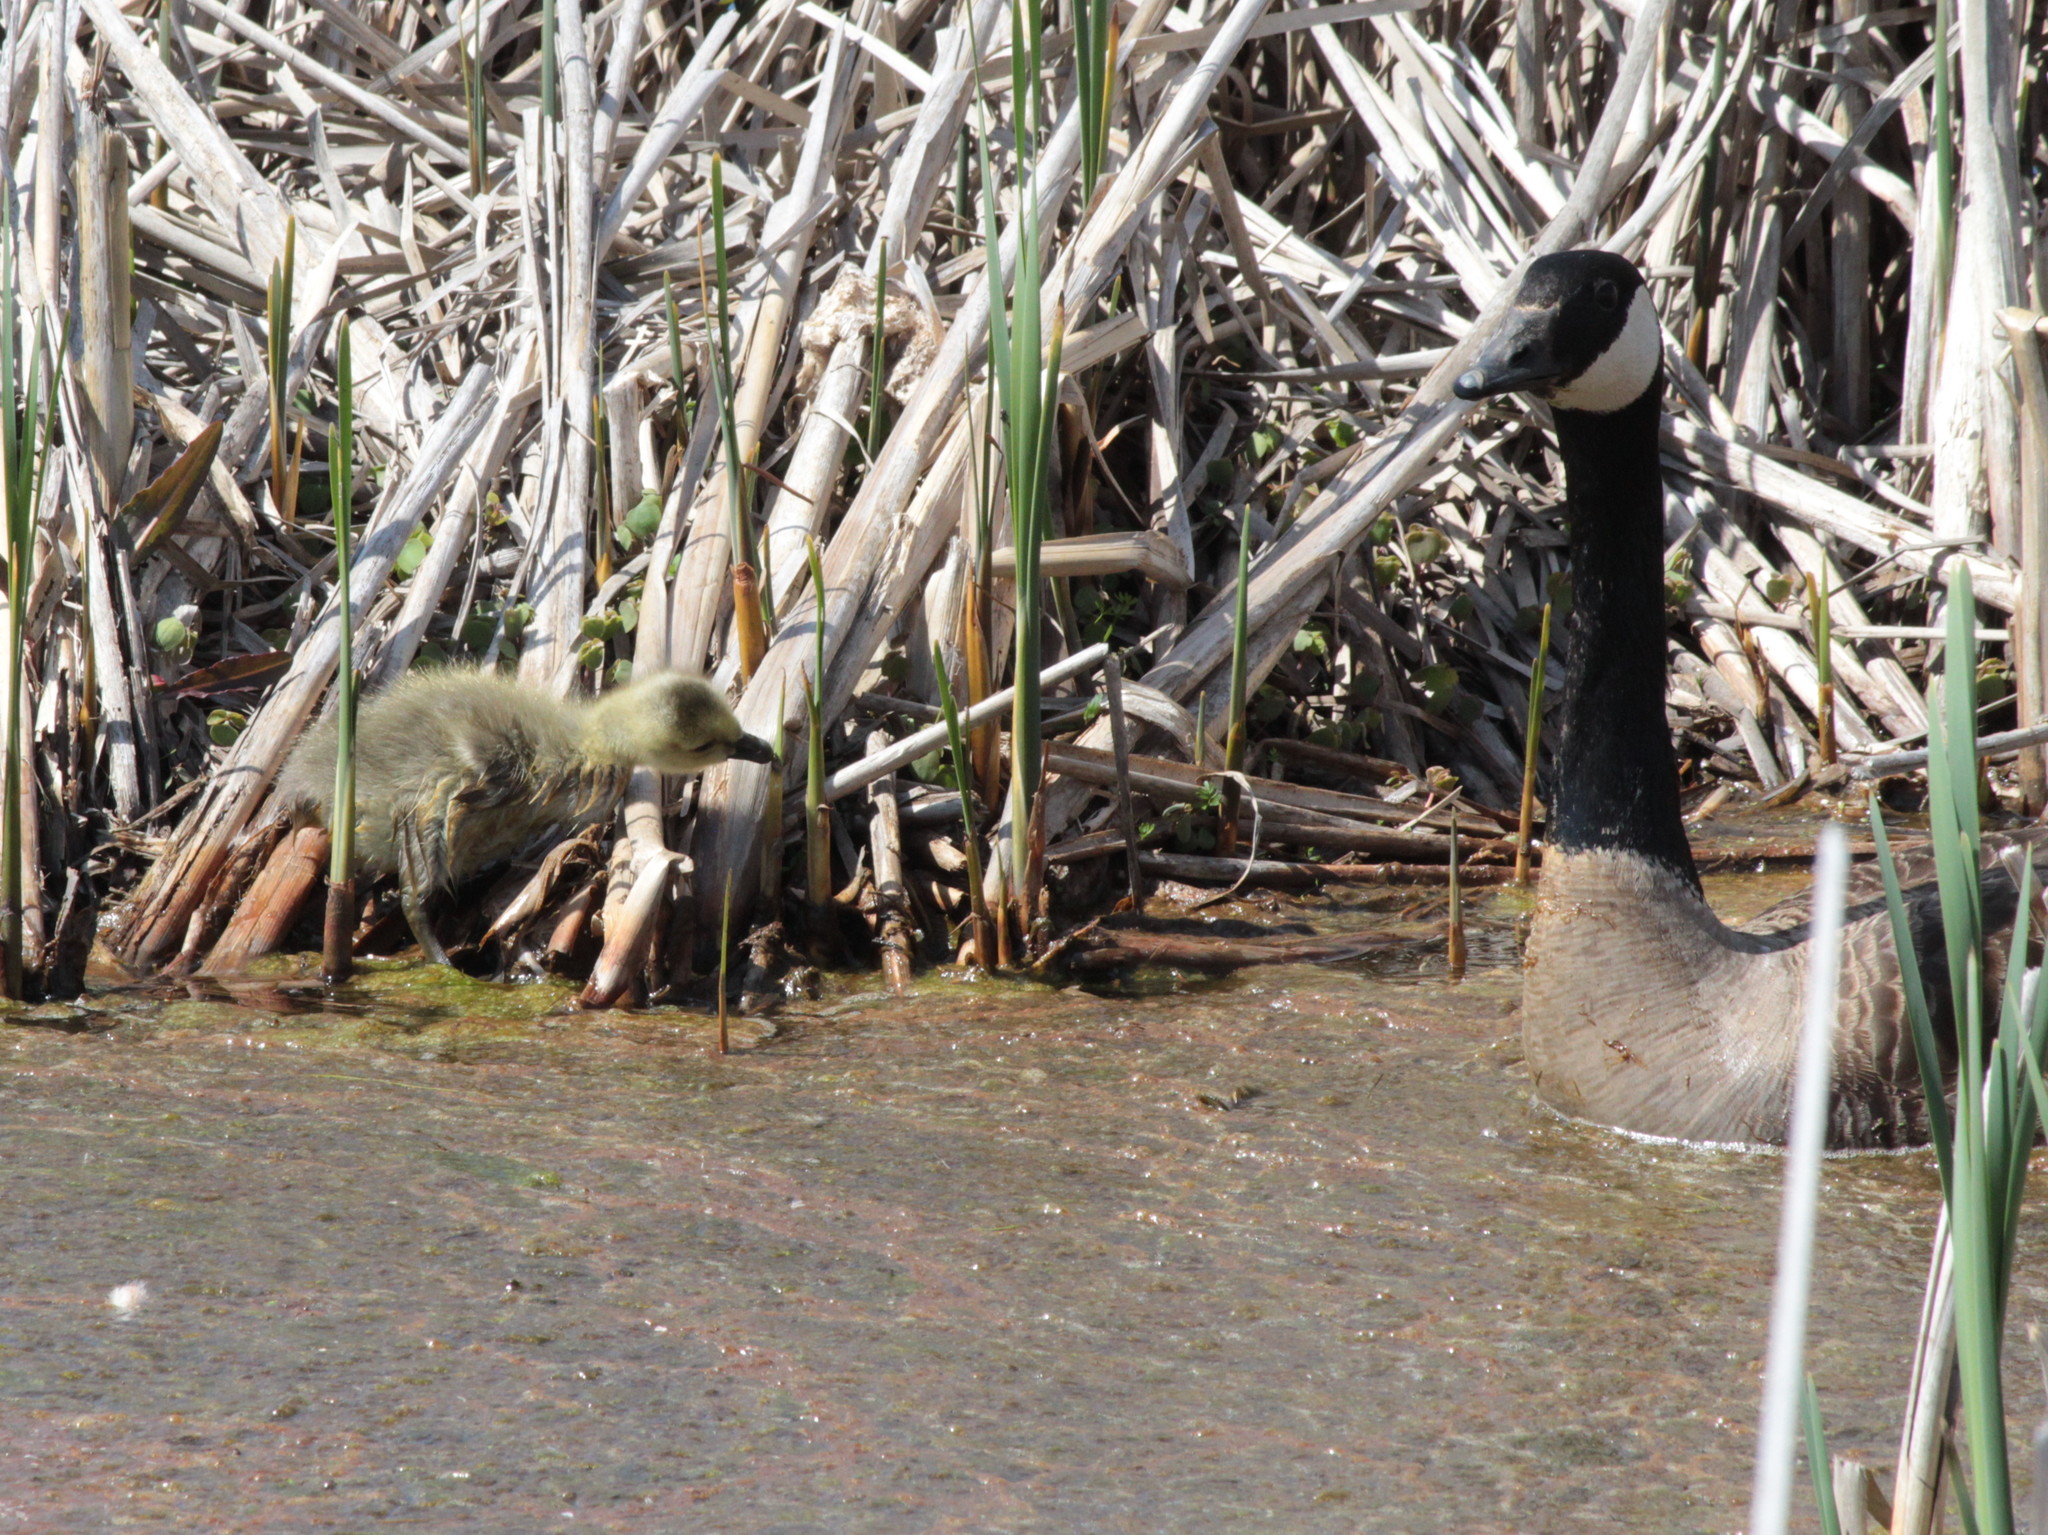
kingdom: Animalia
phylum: Chordata
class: Aves
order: Anseriformes
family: Anatidae
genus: Branta
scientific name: Branta canadensis
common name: Canada goose
